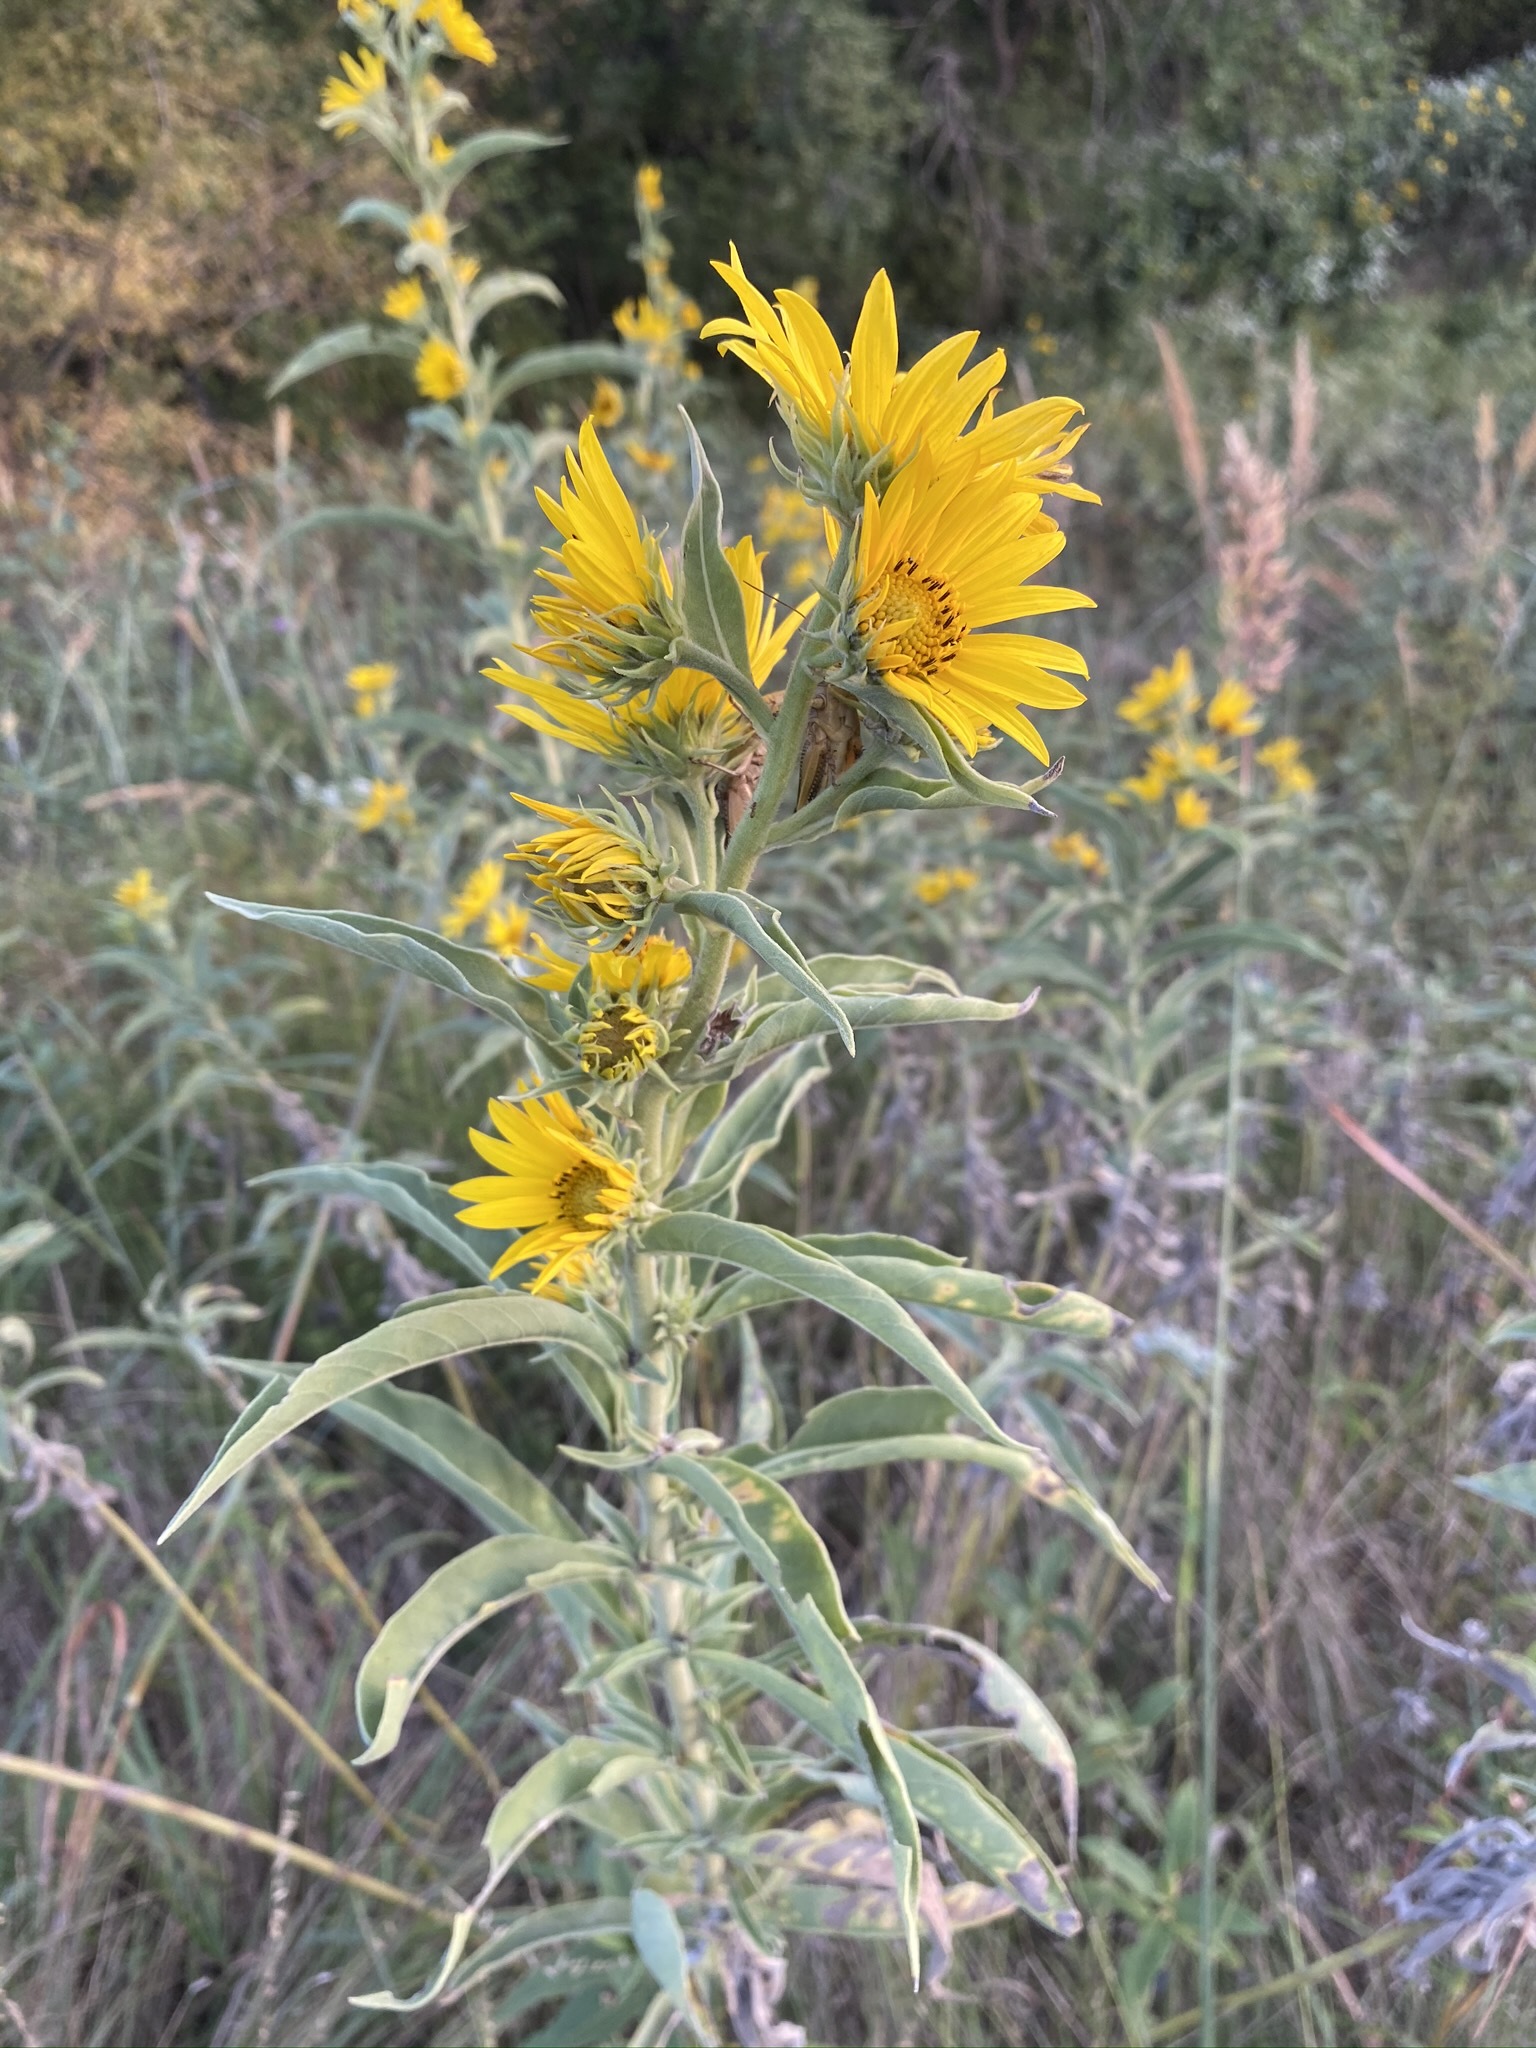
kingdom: Plantae
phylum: Tracheophyta
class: Magnoliopsida
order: Asterales
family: Asteraceae
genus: Helianthus
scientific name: Helianthus maximiliani
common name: Maximilian's sunflower
